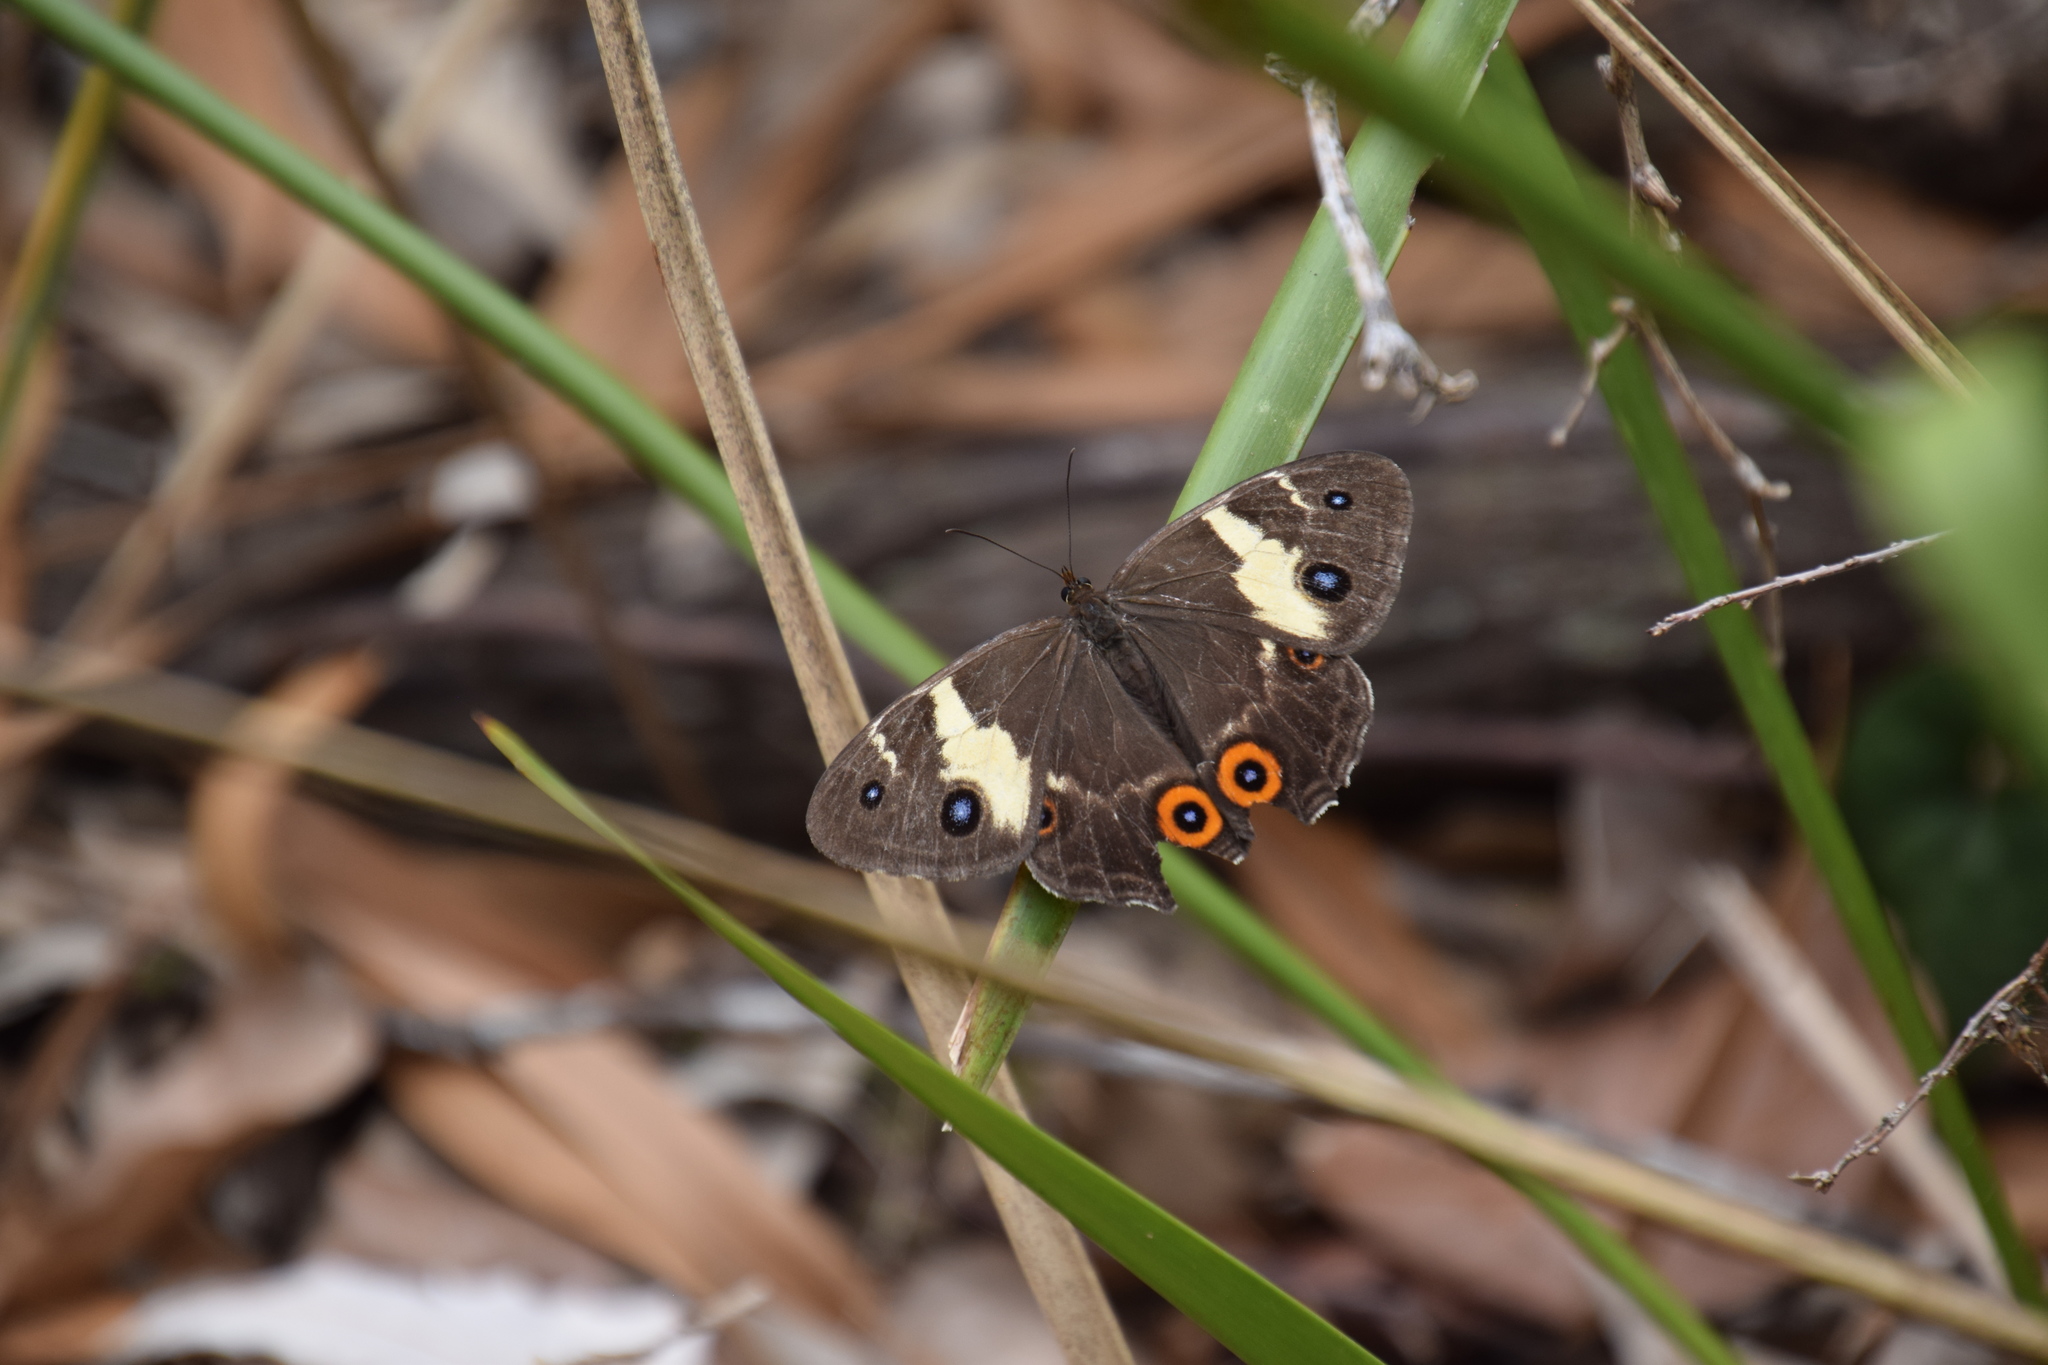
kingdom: Animalia
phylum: Arthropoda
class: Insecta
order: Lepidoptera
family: Nymphalidae
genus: Tisiphone
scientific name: Tisiphone abeona
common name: Swordgrass brown
